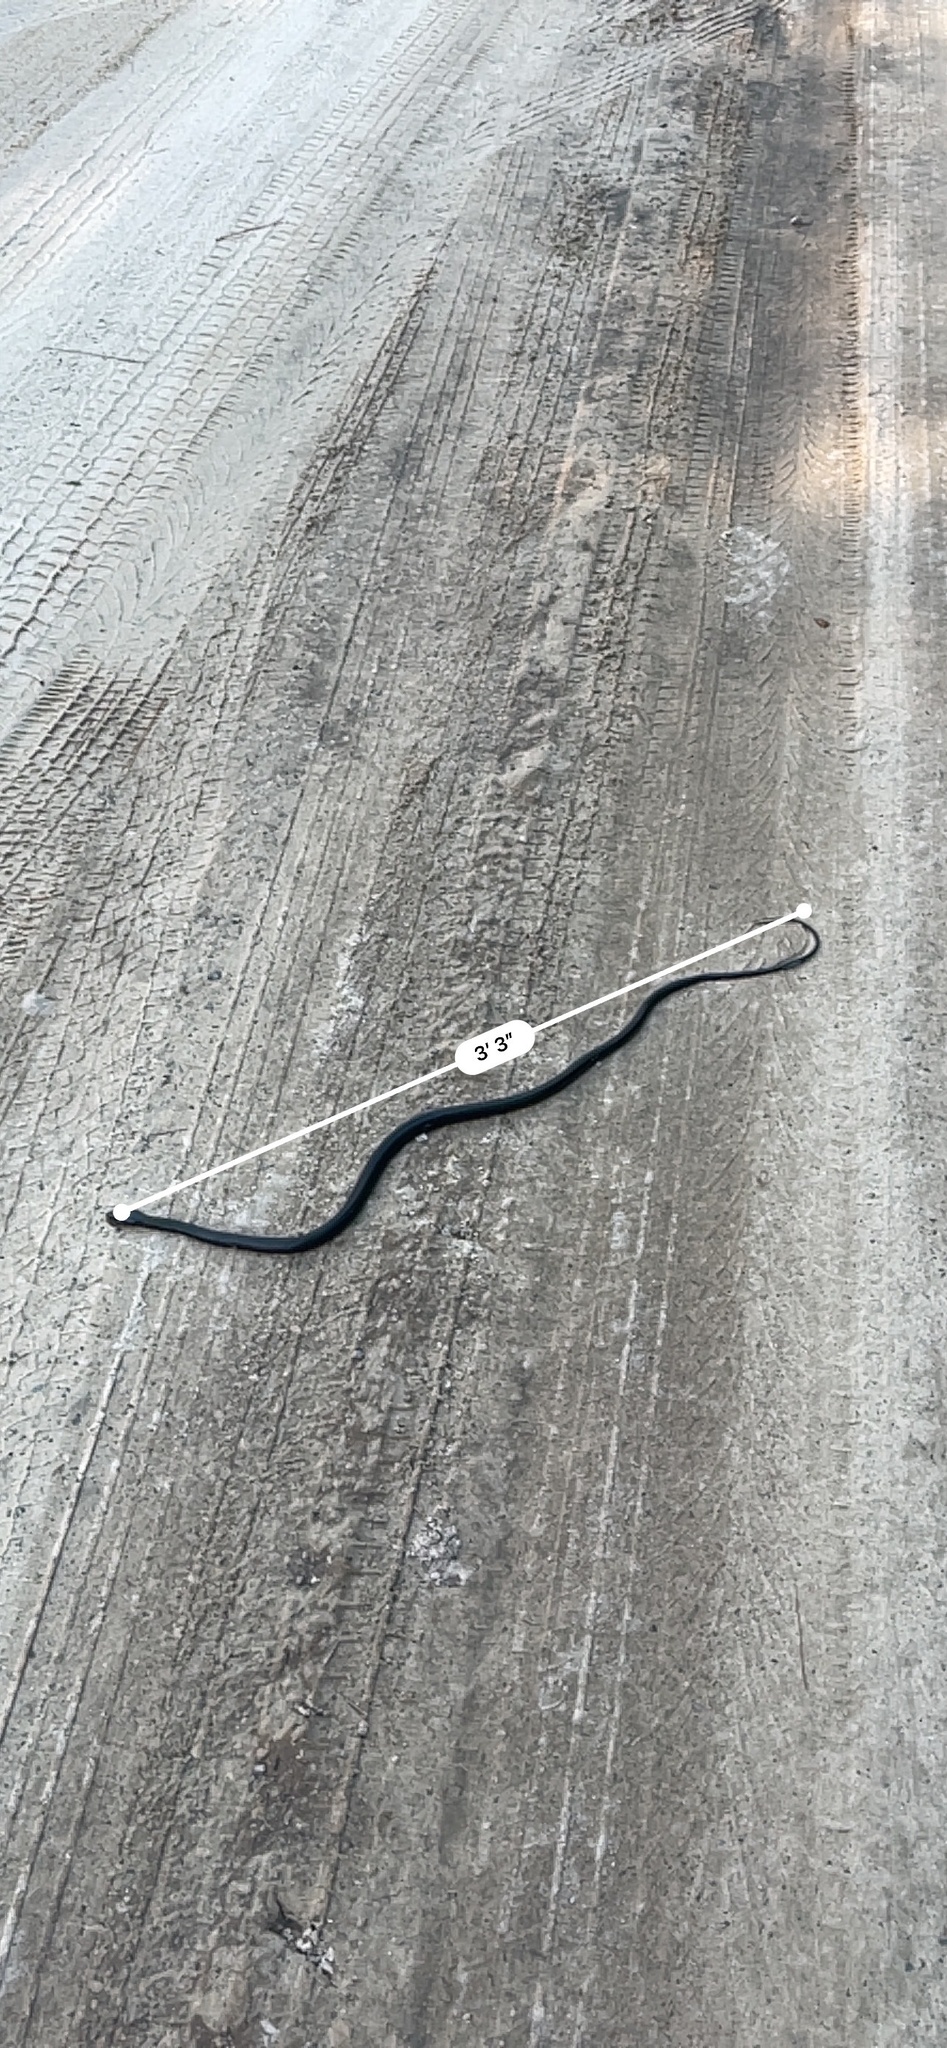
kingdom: Animalia
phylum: Chordata
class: Squamata
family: Colubridae
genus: Coluber
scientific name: Coluber constrictor
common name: Eastern racer
